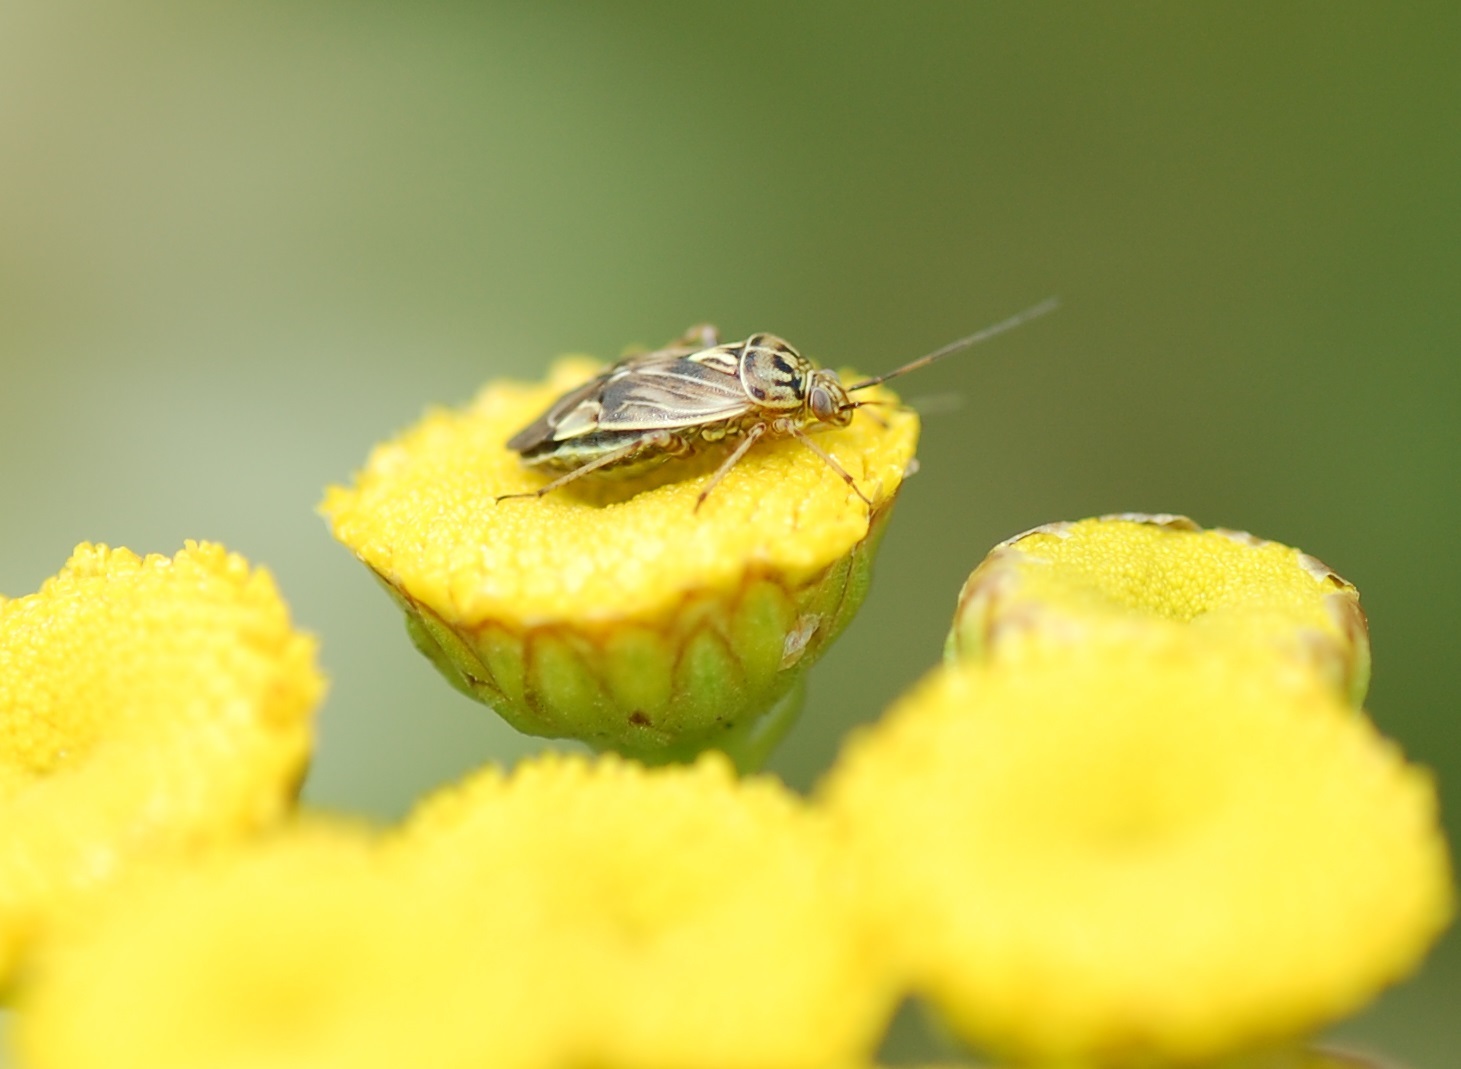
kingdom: Animalia
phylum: Arthropoda
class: Insecta
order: Hemiptera
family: Miridae
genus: Lygus
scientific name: Lygus lineolaris
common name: North american tarnished plant bug
